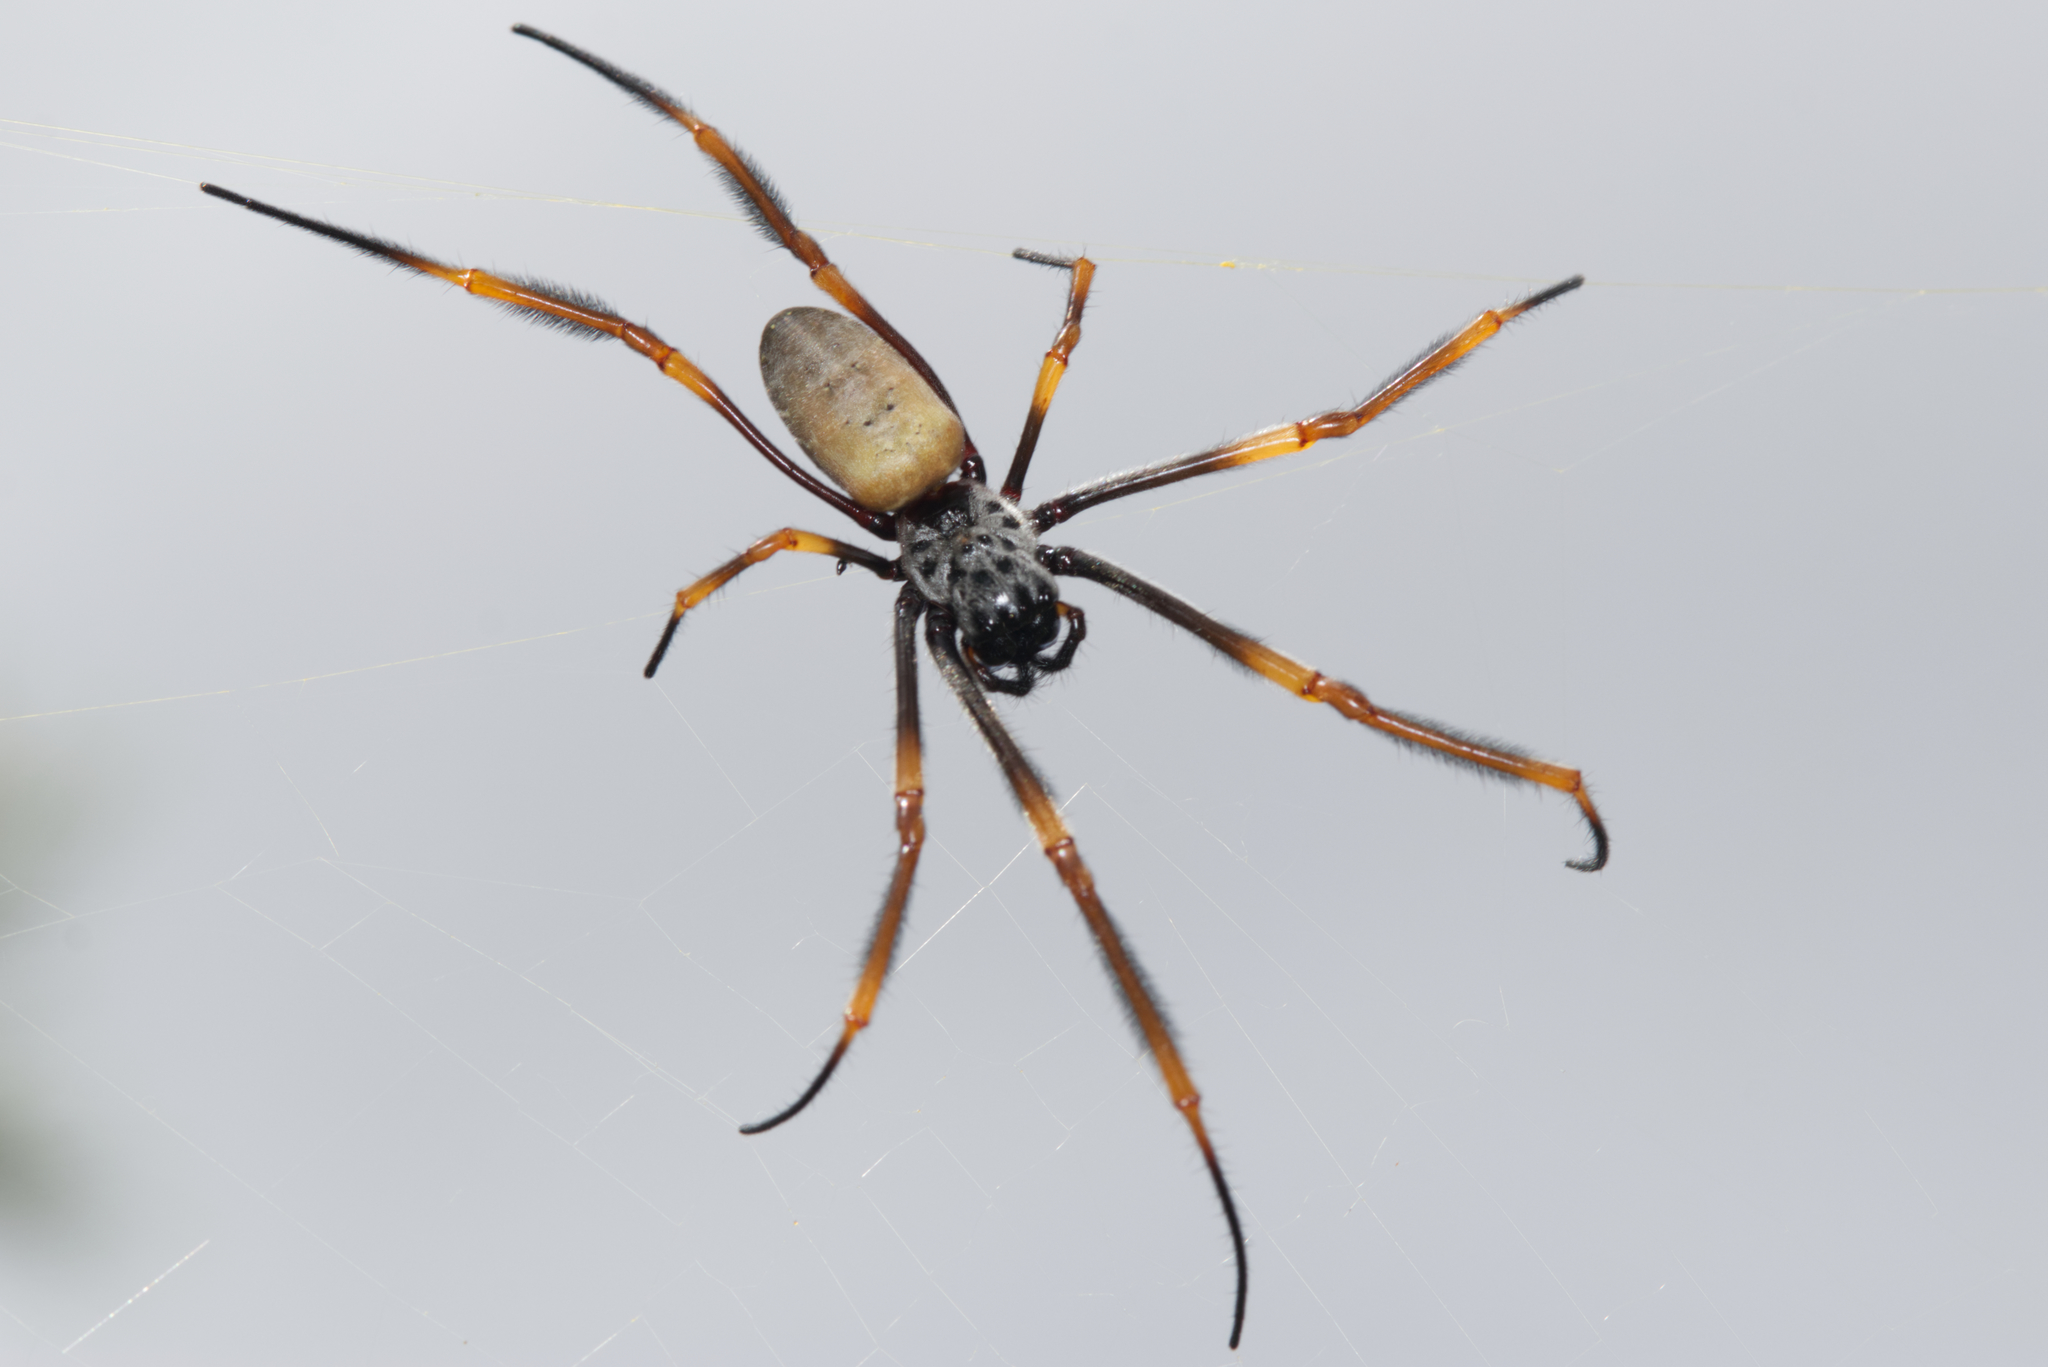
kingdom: Animalia
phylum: Arthropoda
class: Arachnida
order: Araneae
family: Araneidae
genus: Trichonephila
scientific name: Trichonephila plumipes
